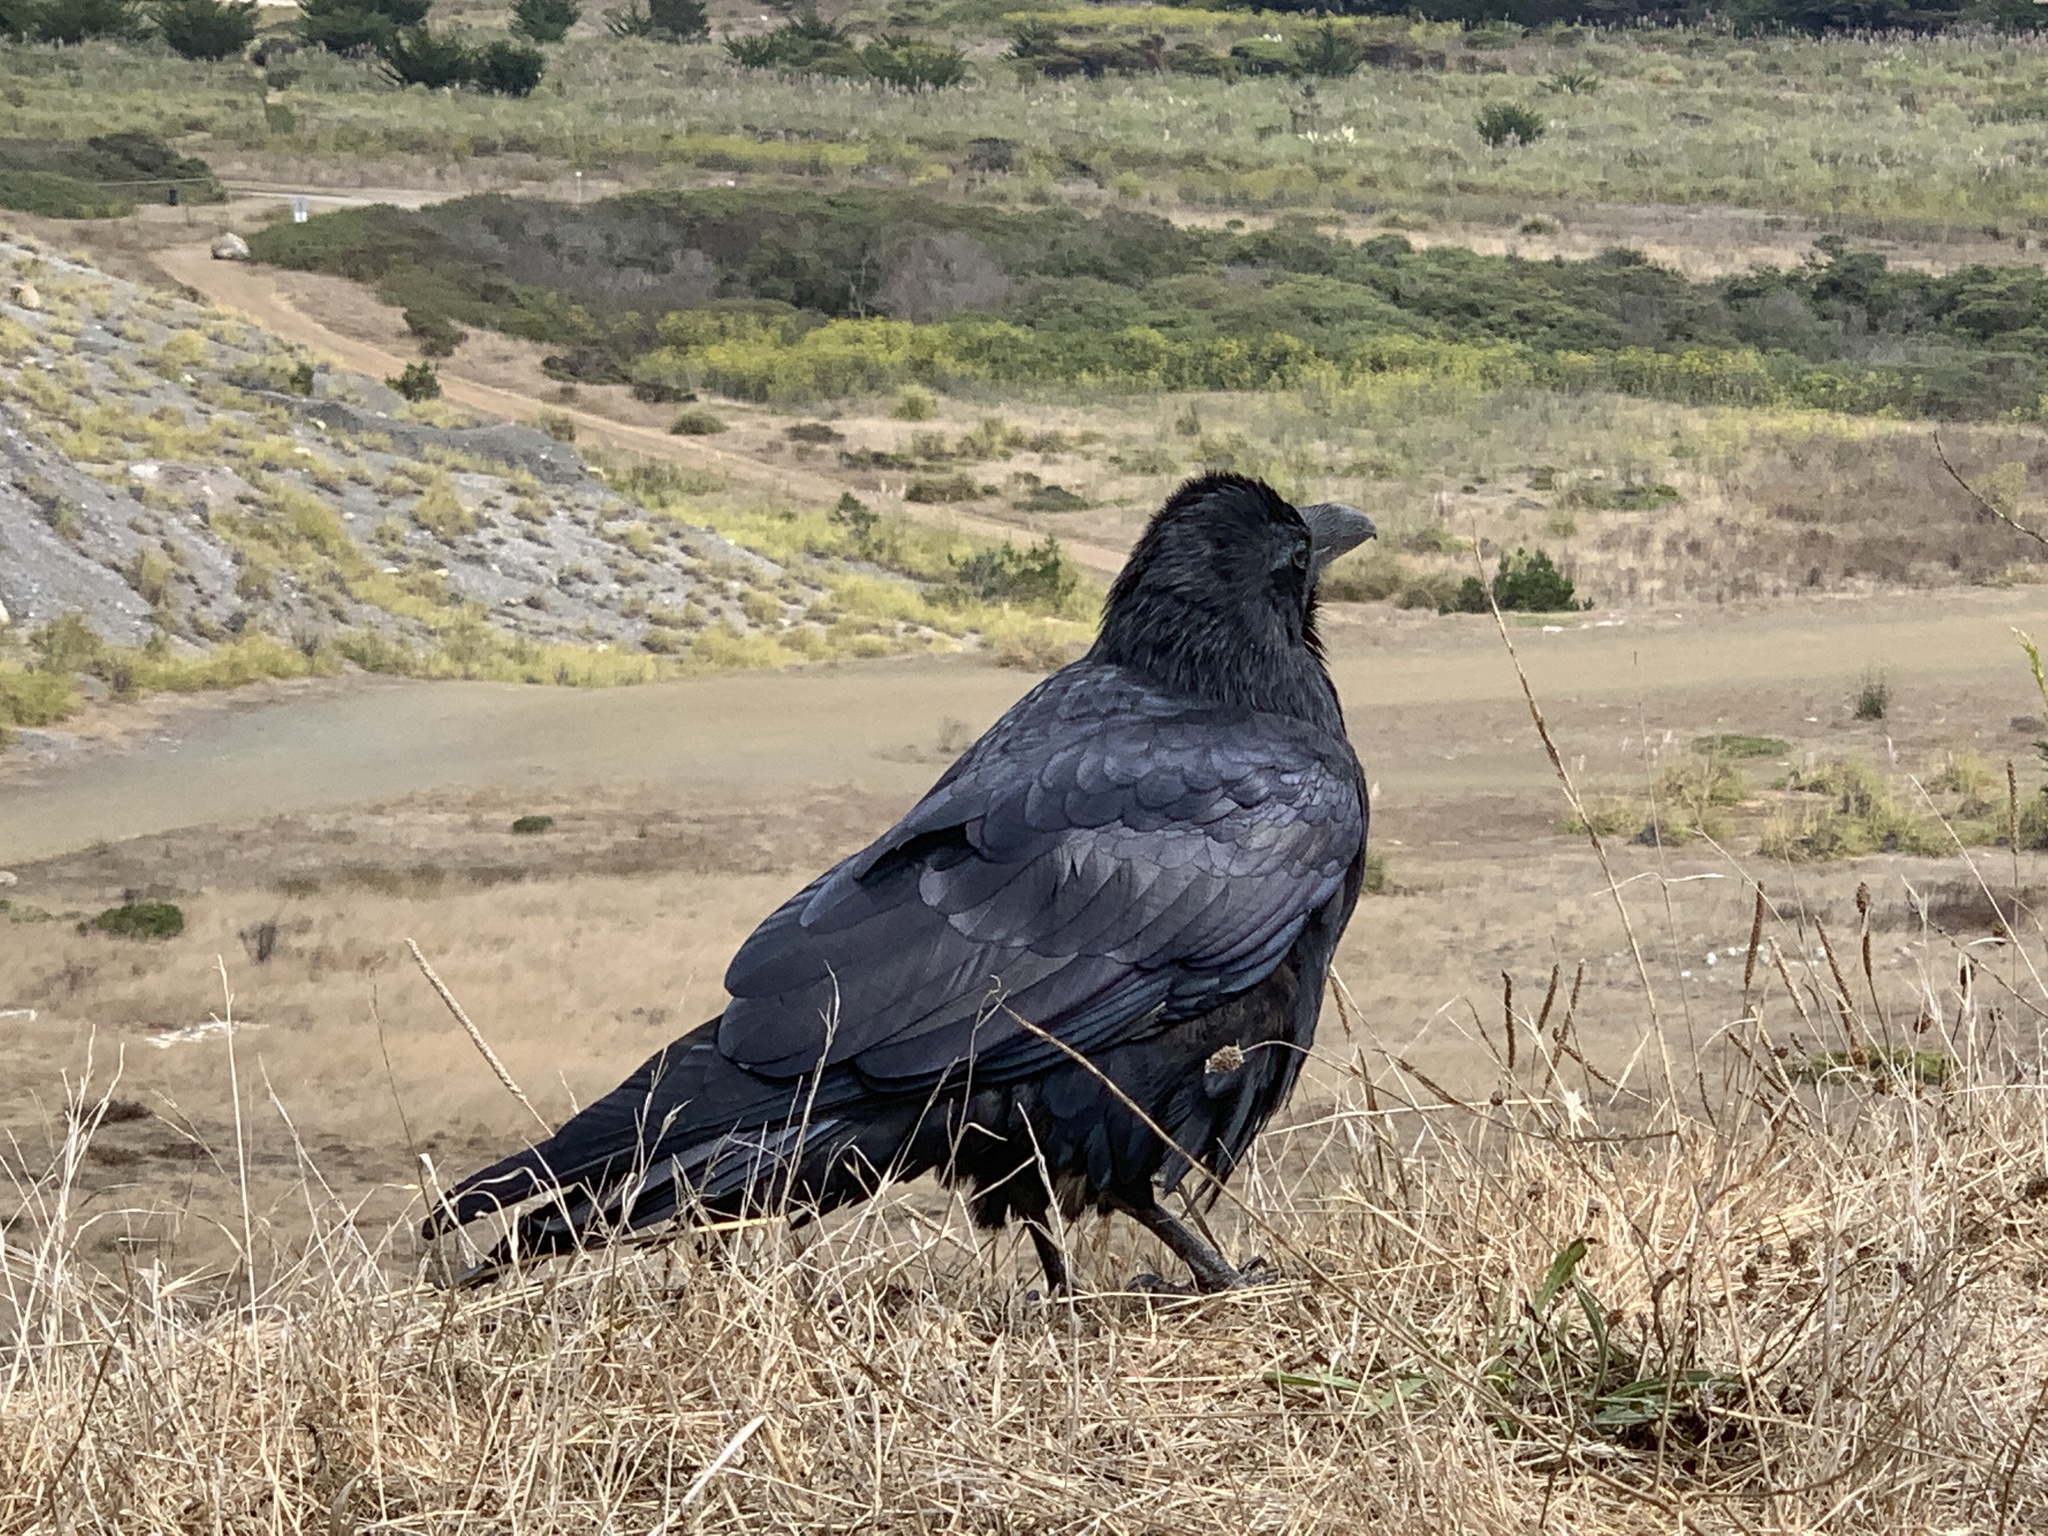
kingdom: Animalia
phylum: Chordata
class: Aves
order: Passeriformes
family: Corvidae
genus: Corvus
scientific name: Corvus corax
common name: Common raven
